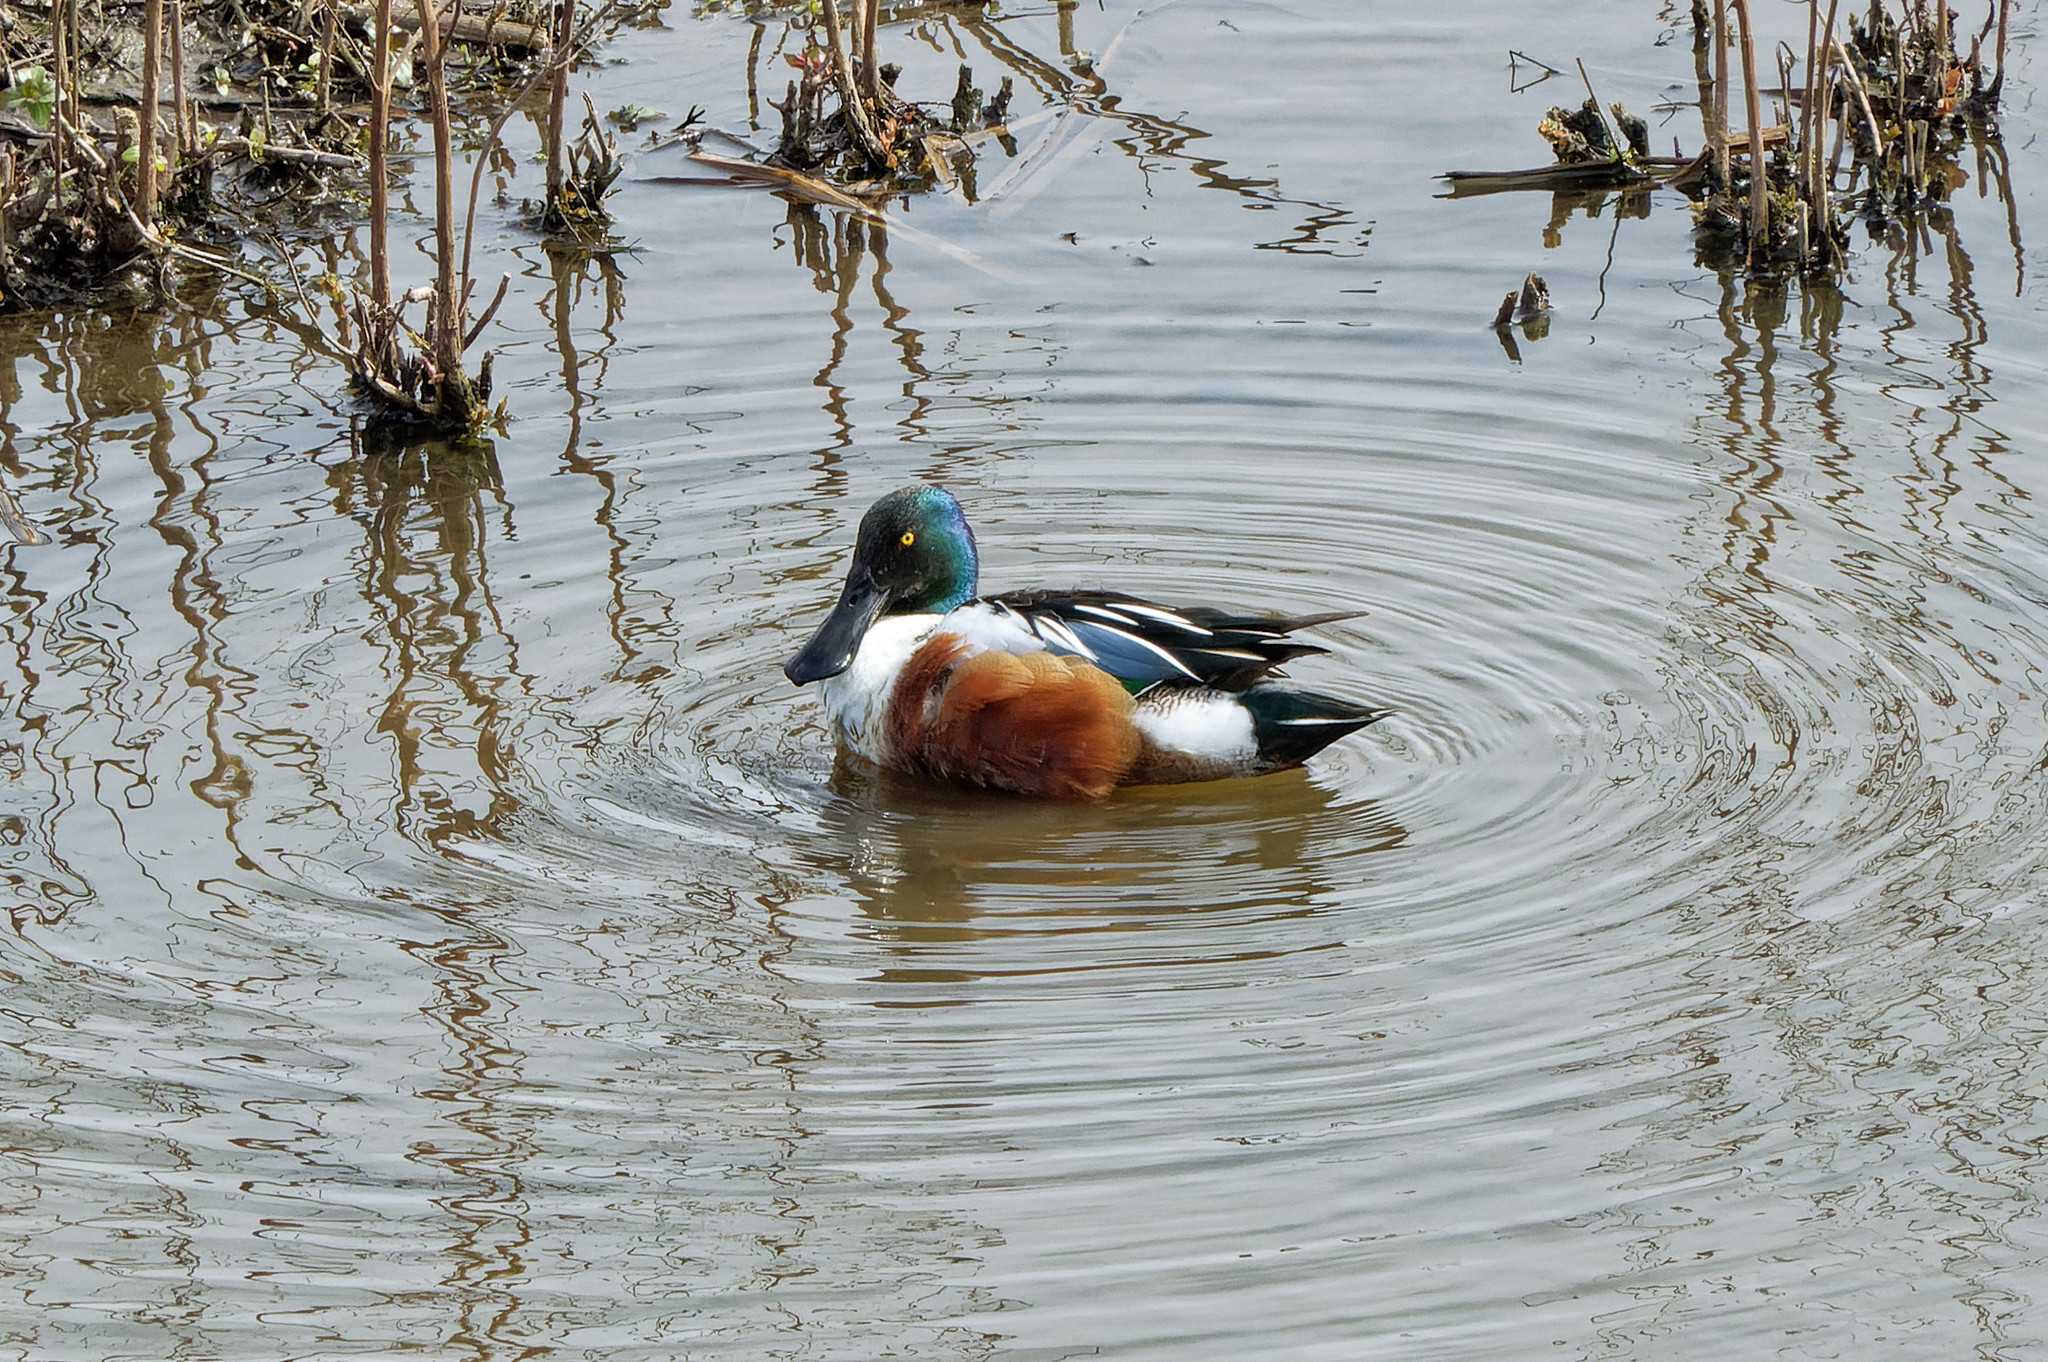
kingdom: Animalia
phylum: Chordata
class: Aves
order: Anseriformes
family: Anatidae
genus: Spatula
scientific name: Spatula clypeata
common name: Northern shoveler
